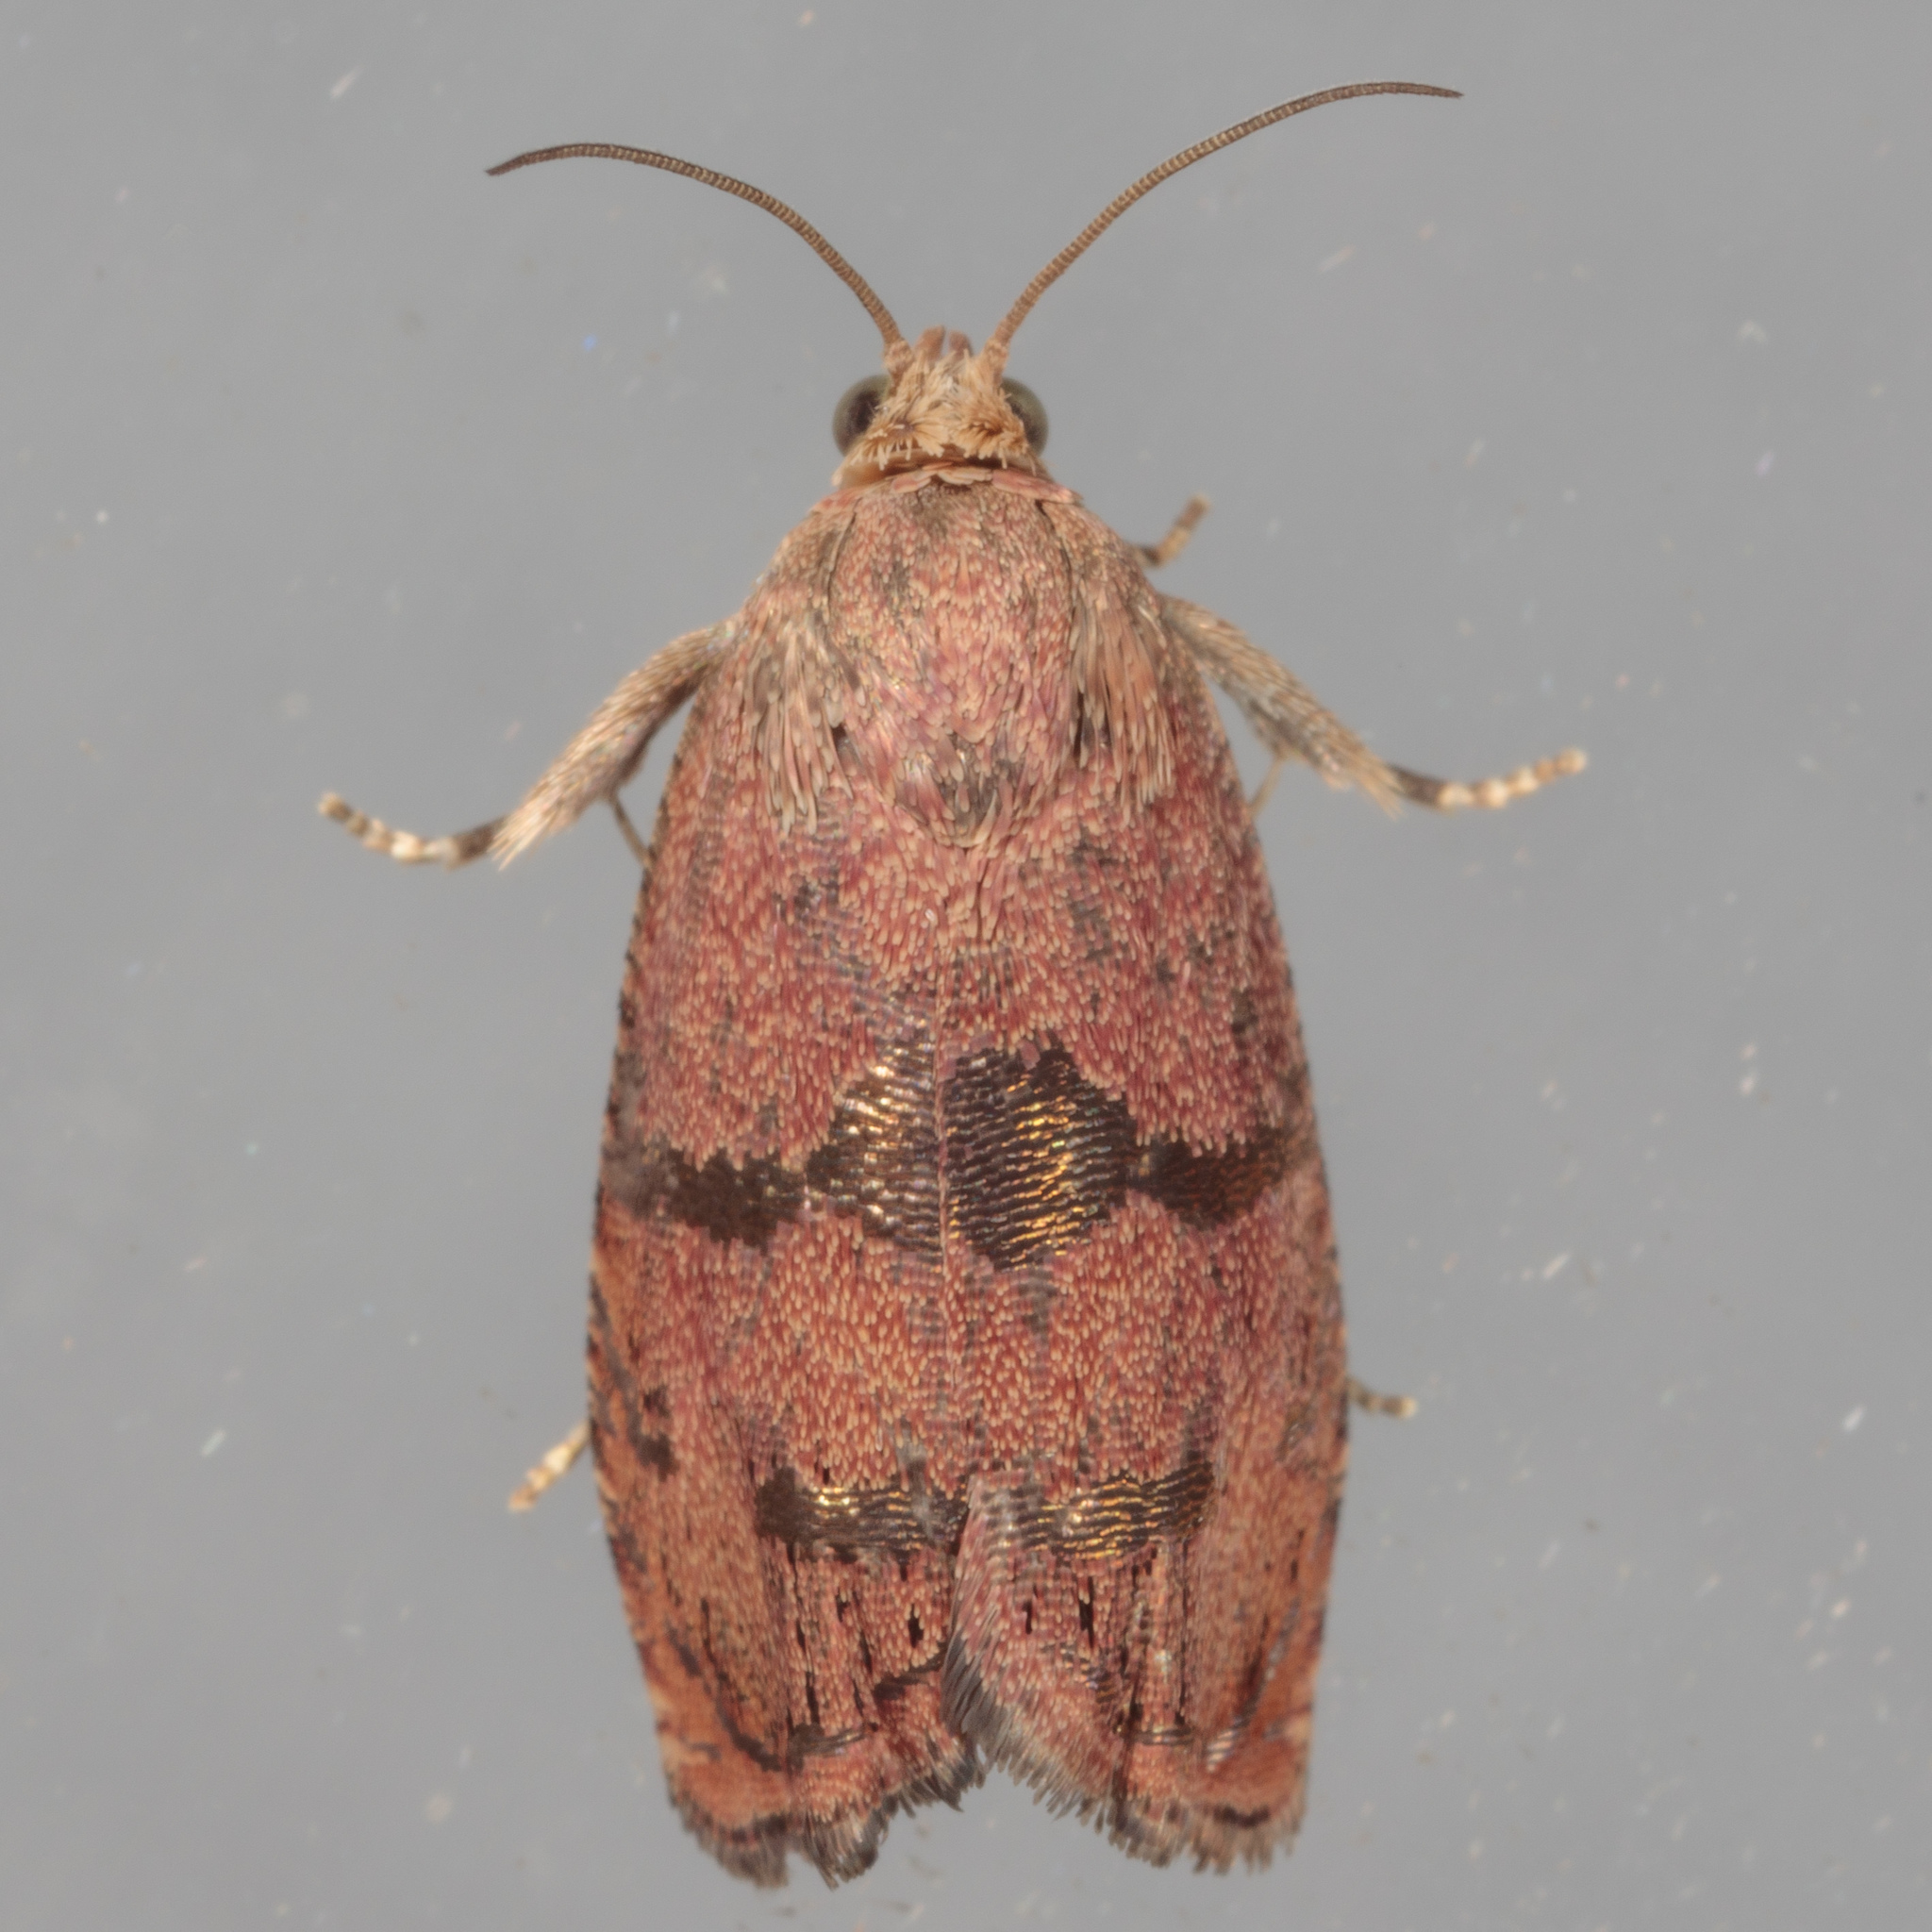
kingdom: Animalia
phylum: Arthropoda
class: Insecta
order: Lepidoptera
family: Tortricidae
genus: Cydia
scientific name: Cydia latiferreana
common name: Filbertworm moth
